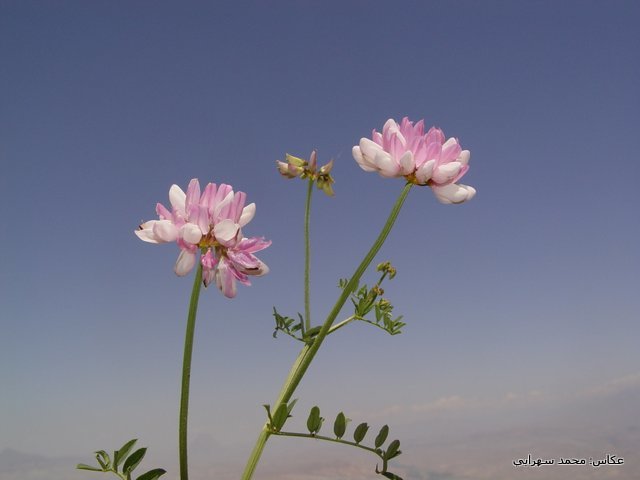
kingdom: Plantae
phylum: Tracheophyta
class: Magnoliopsida
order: Fabales
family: Fabaceae
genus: Coronilla
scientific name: Coronilla varia
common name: Crownvetch
